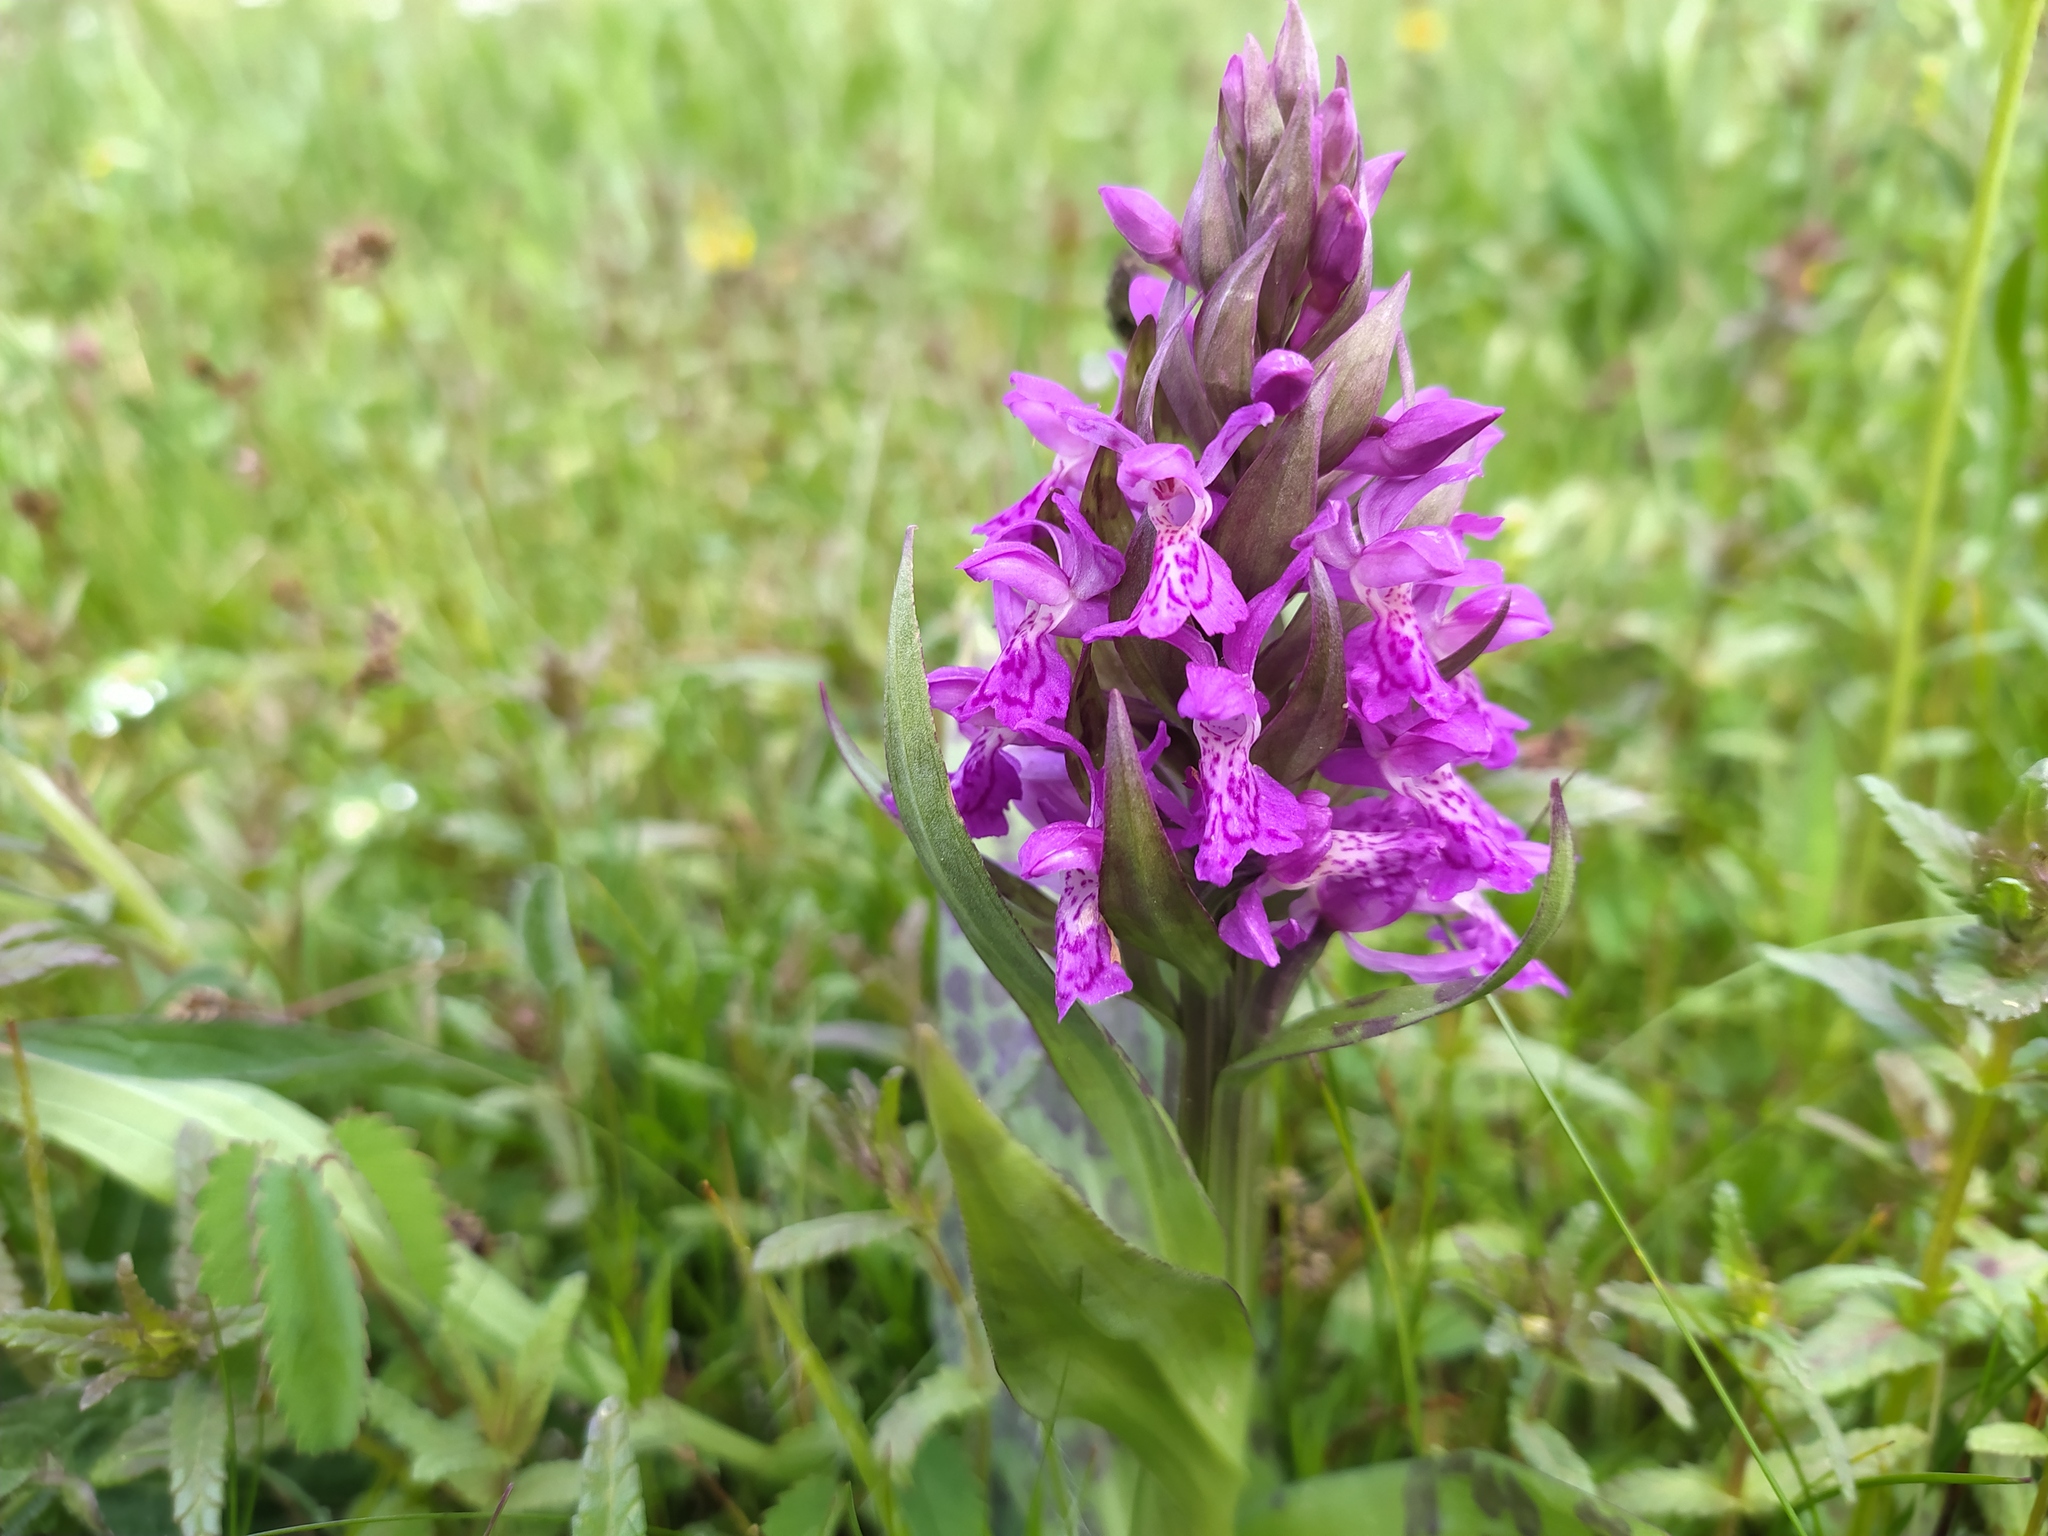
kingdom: Plantae
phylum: Tracheophyta
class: Liliopsida
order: Asparagales
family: Orchidaceae
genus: Dactylorhiza
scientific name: Dactylorhiza majalis
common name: Marsh orchid
